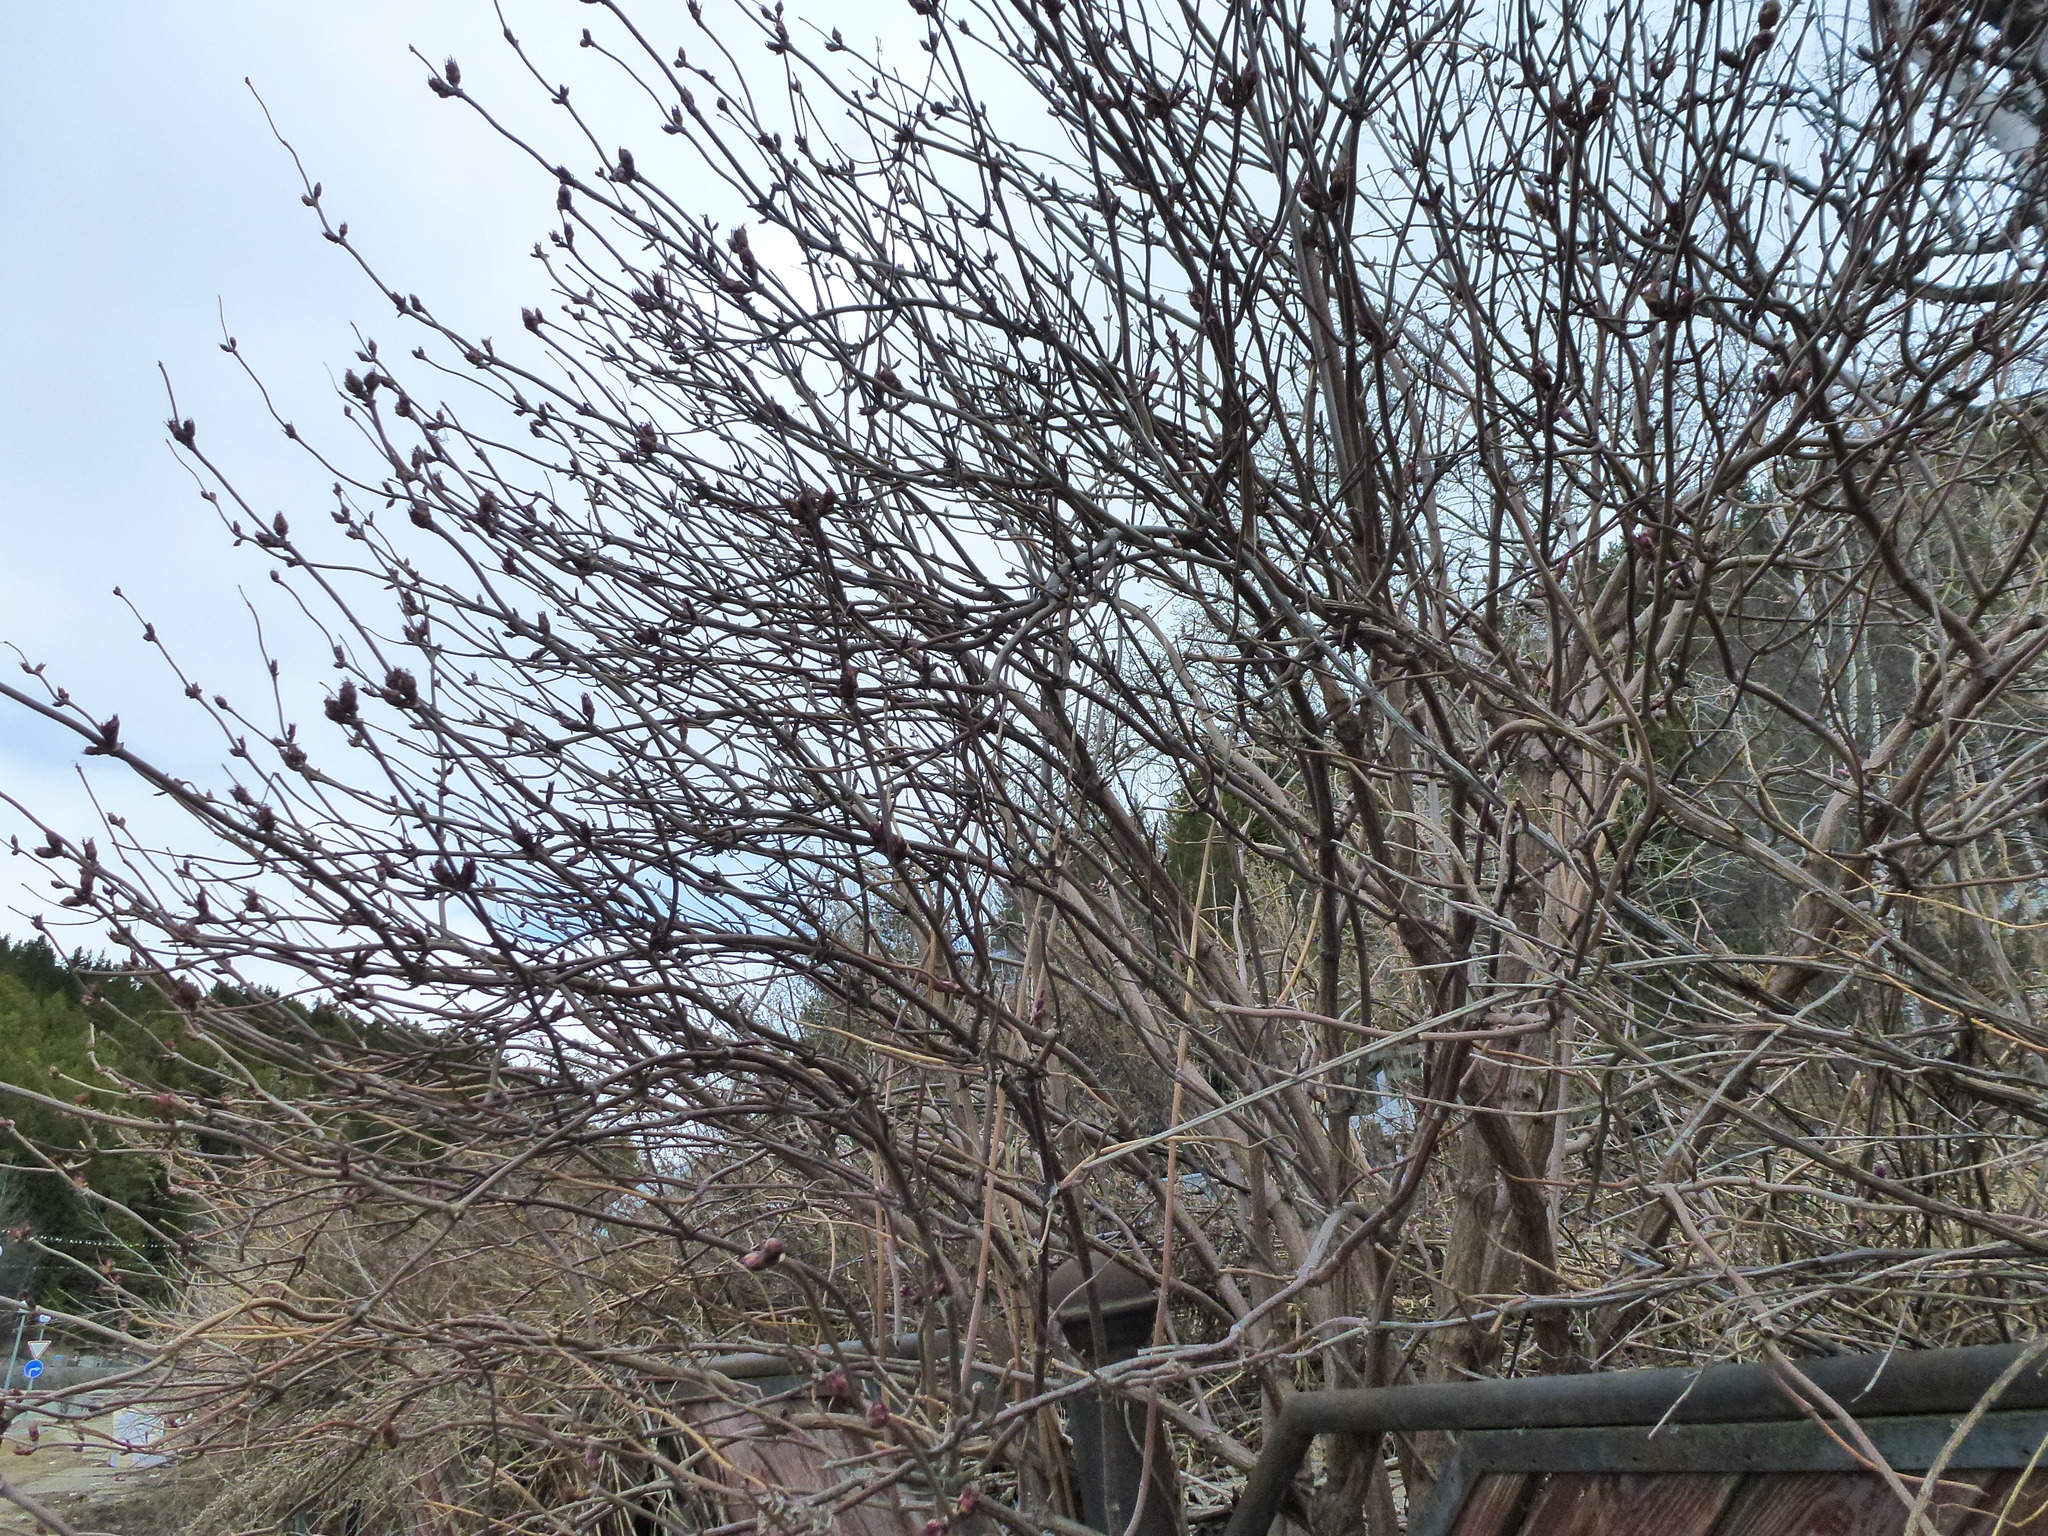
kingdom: Plantae
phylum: Tracheophyta
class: Magnoliopsida
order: Dipsacales
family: Viburnaceae
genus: Sambucus
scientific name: Sambucus sibirica
